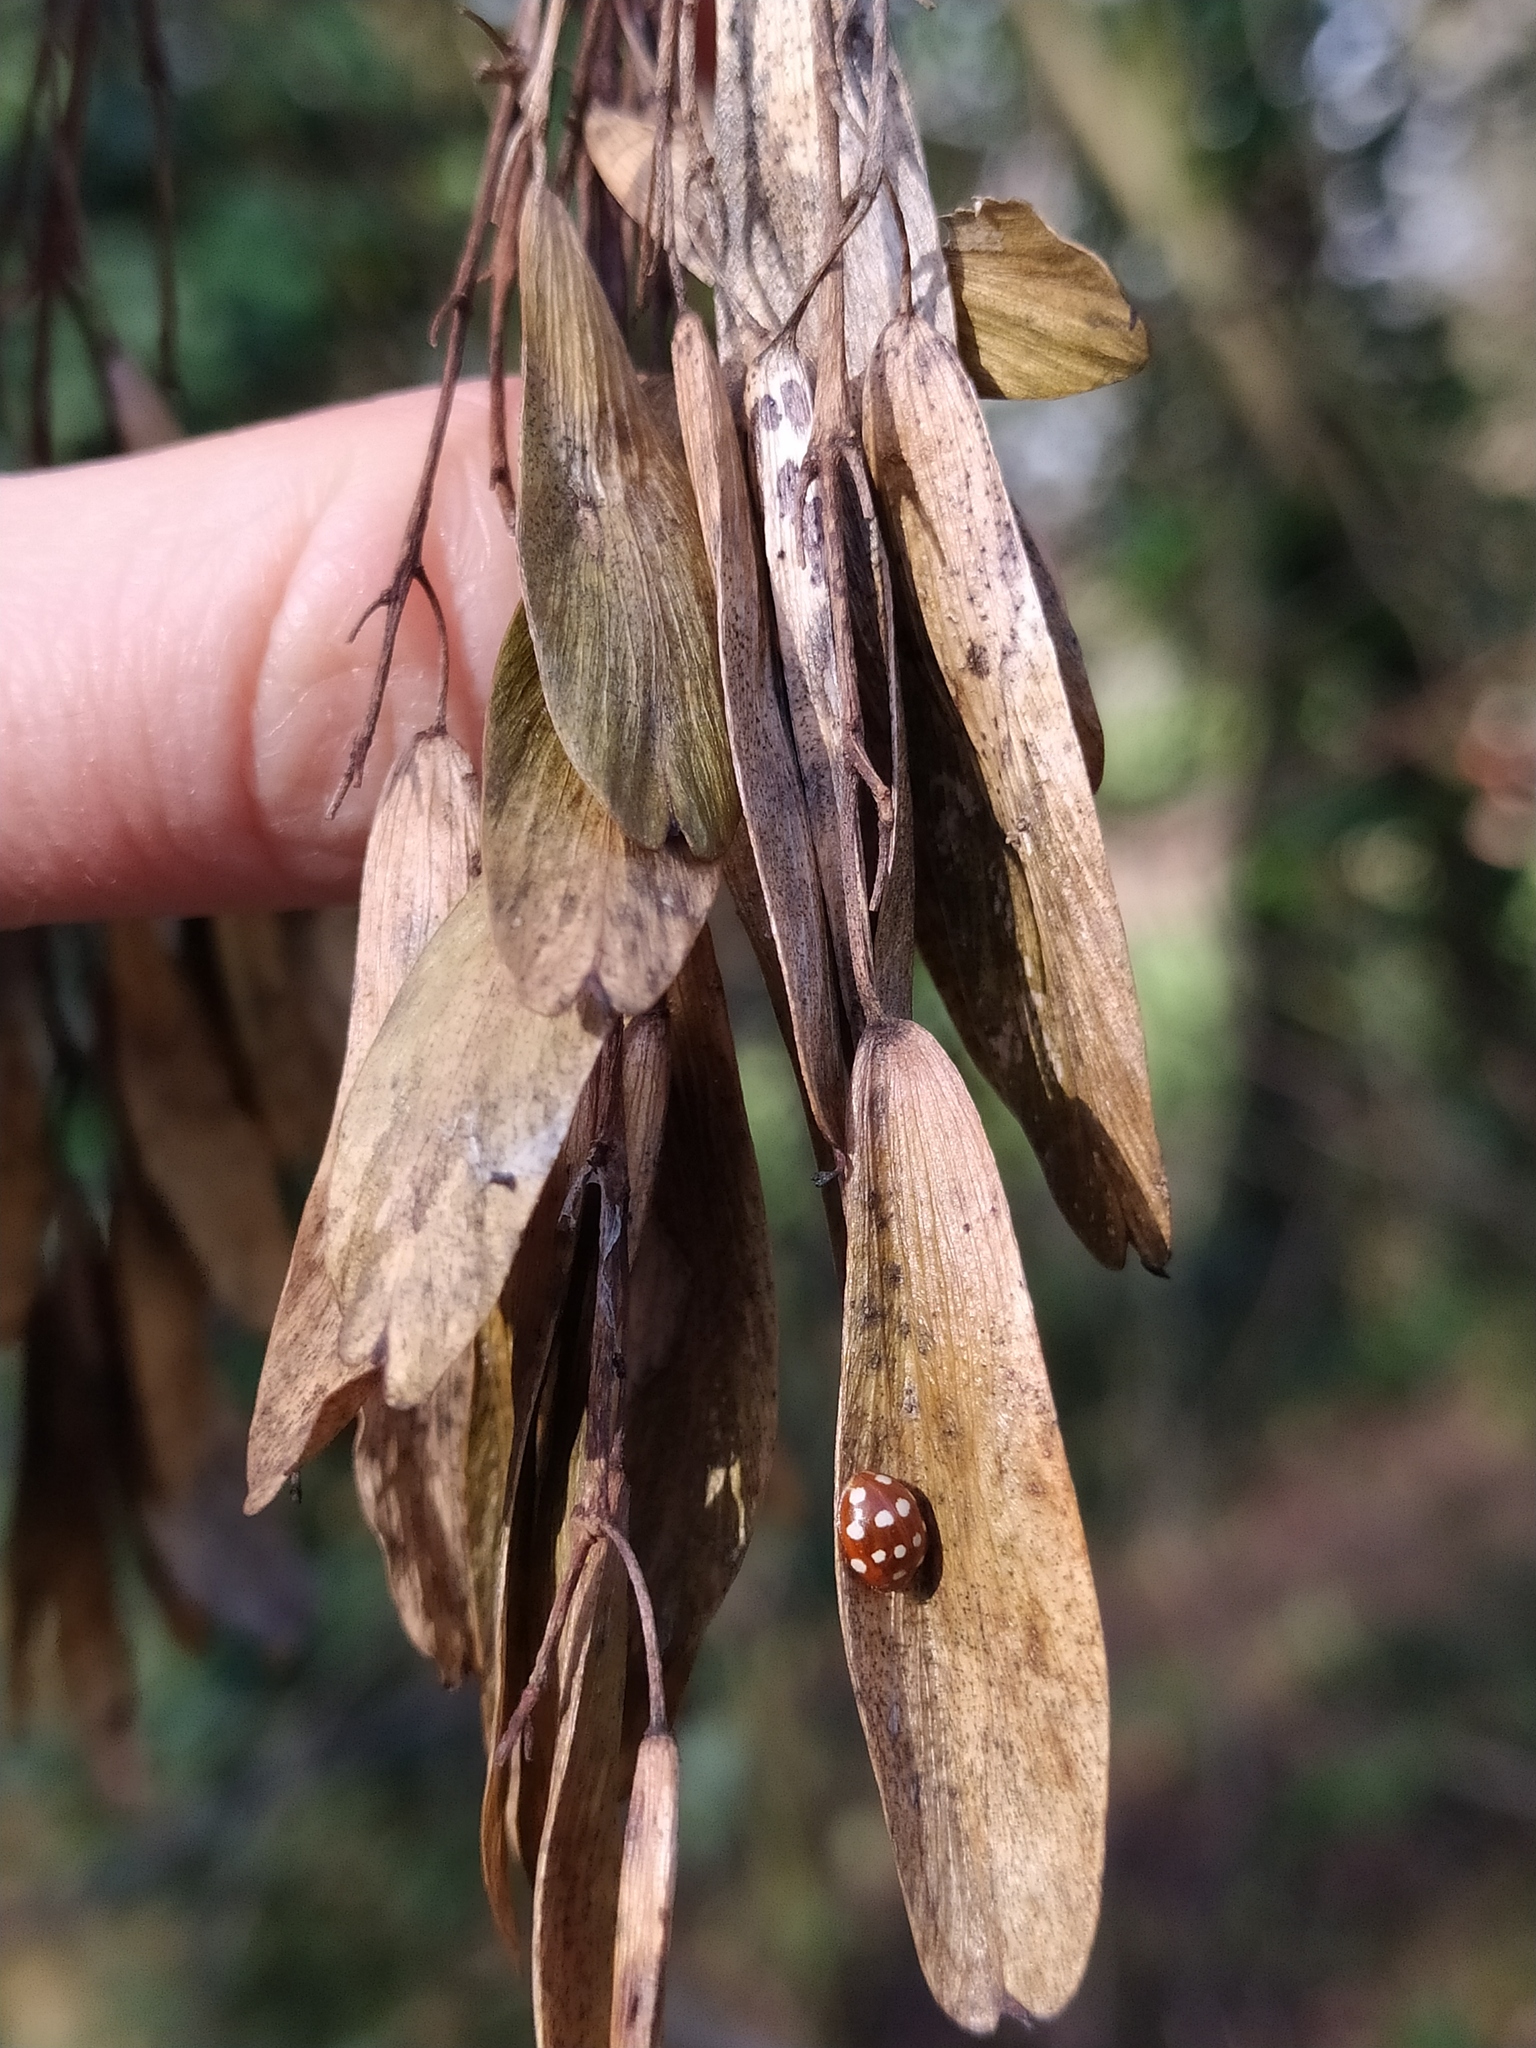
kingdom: Animalia
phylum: Arthropoda
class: Insecta
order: Coleoptera
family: Coccinellidae
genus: Calvia
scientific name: Calvia quatuordecimguttata
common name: Cream-spot ladybird
